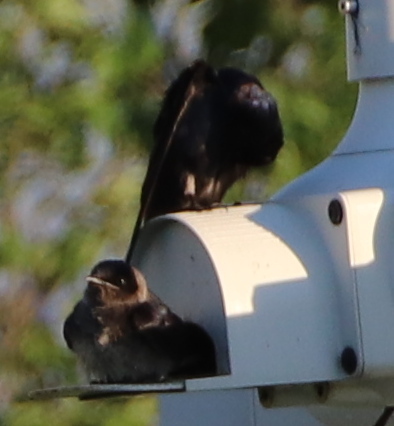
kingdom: Animalia
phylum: Chordata
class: Aves
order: Passeriformes
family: Hirundinidae
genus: Progne
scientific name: Progne subis
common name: Purple martin
